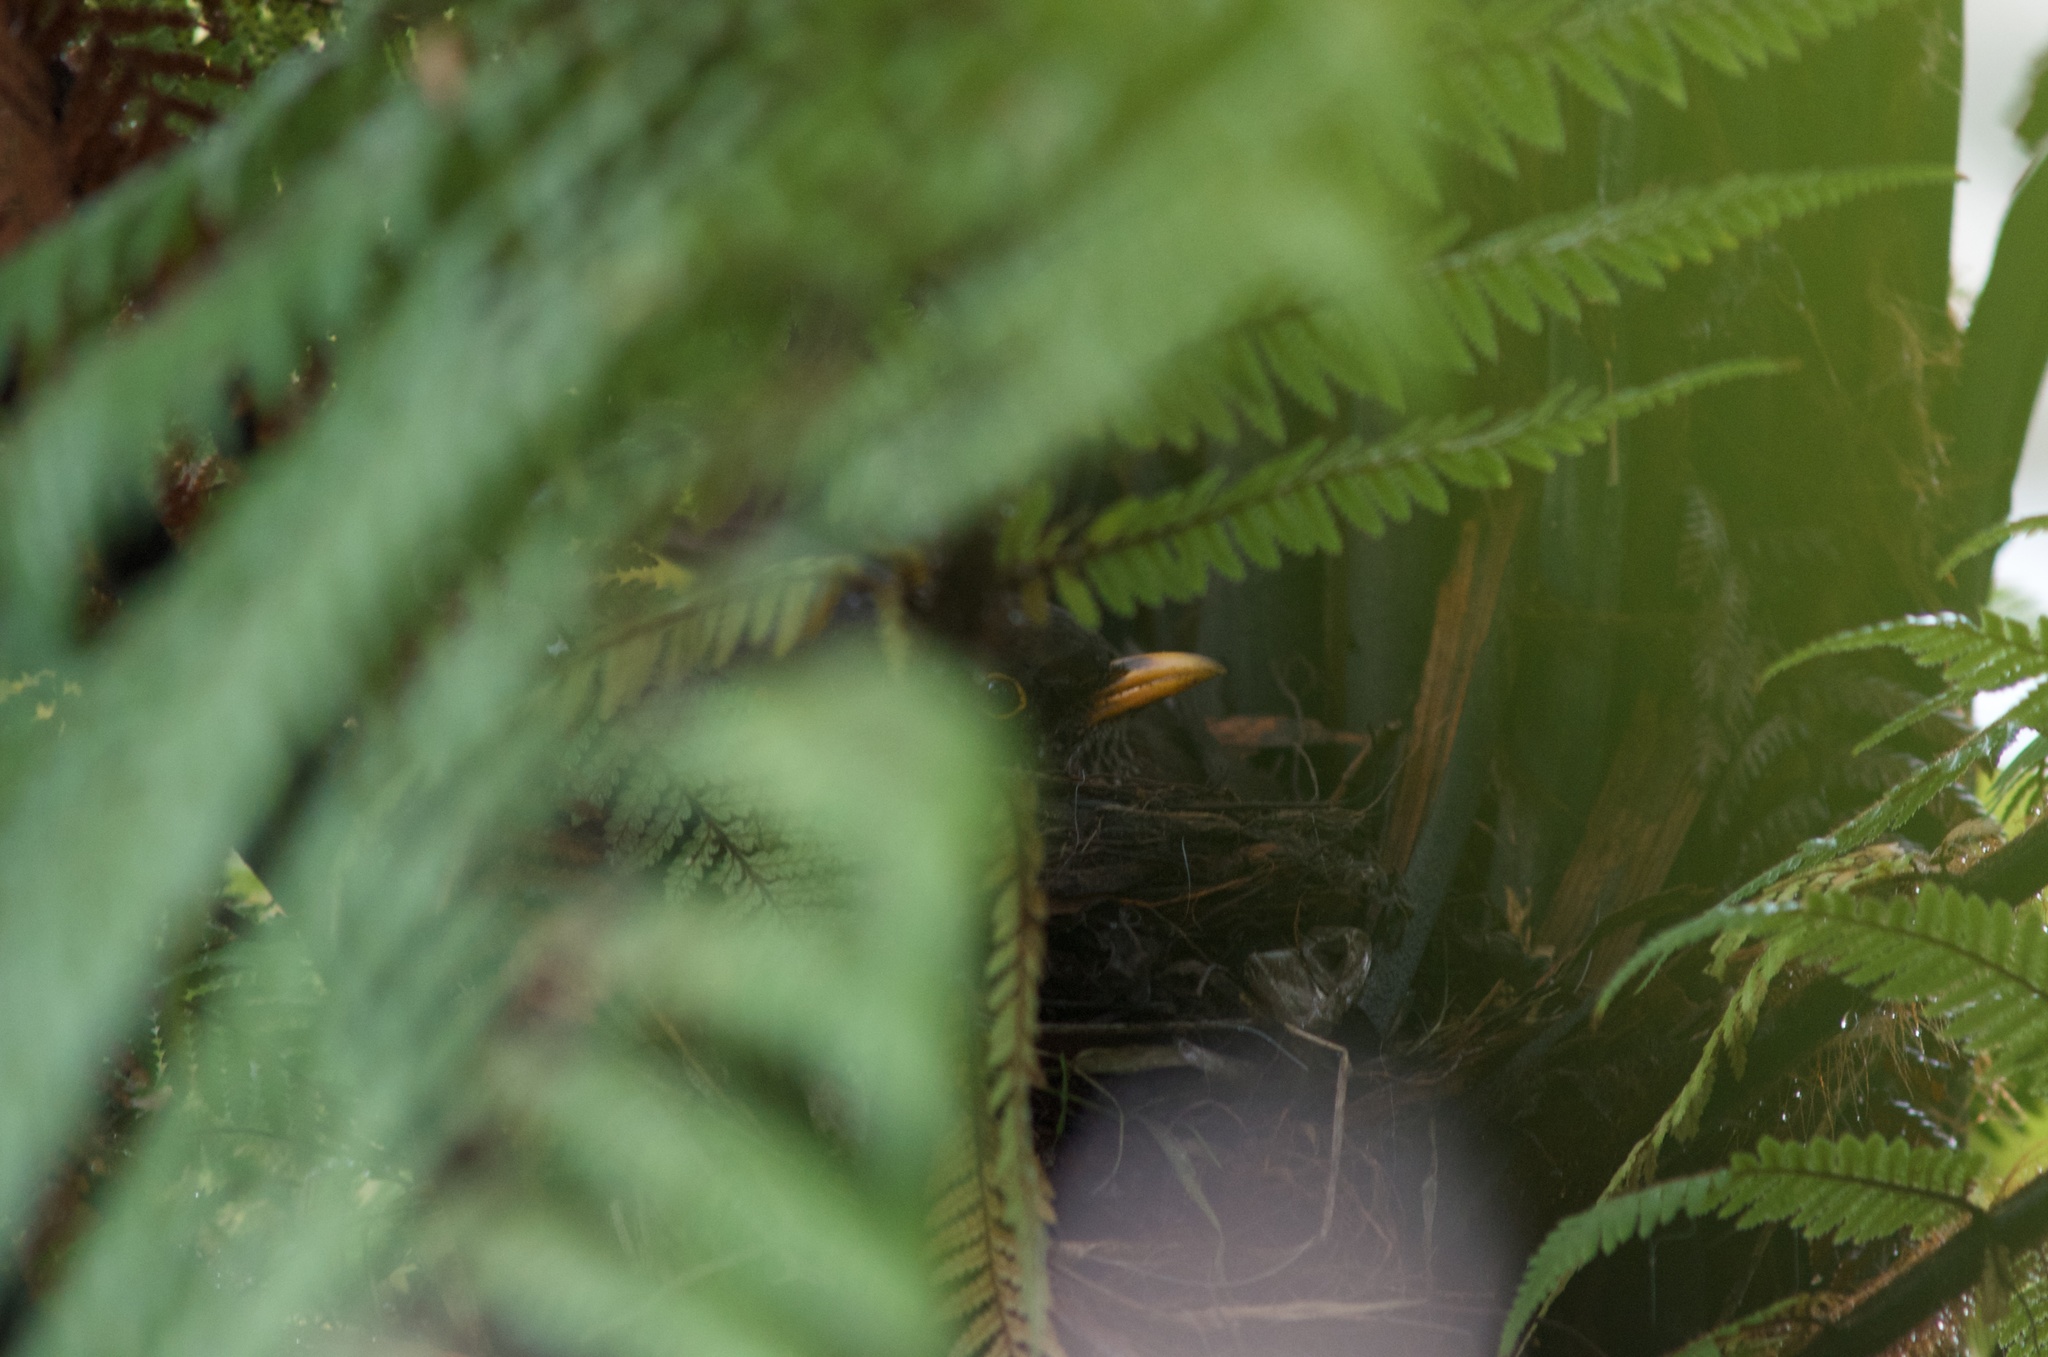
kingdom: Animalia
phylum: Chordata
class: Aves
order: Passeriformes
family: Turdidae
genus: Turdus
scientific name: Turdus merula
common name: Common blackbird
